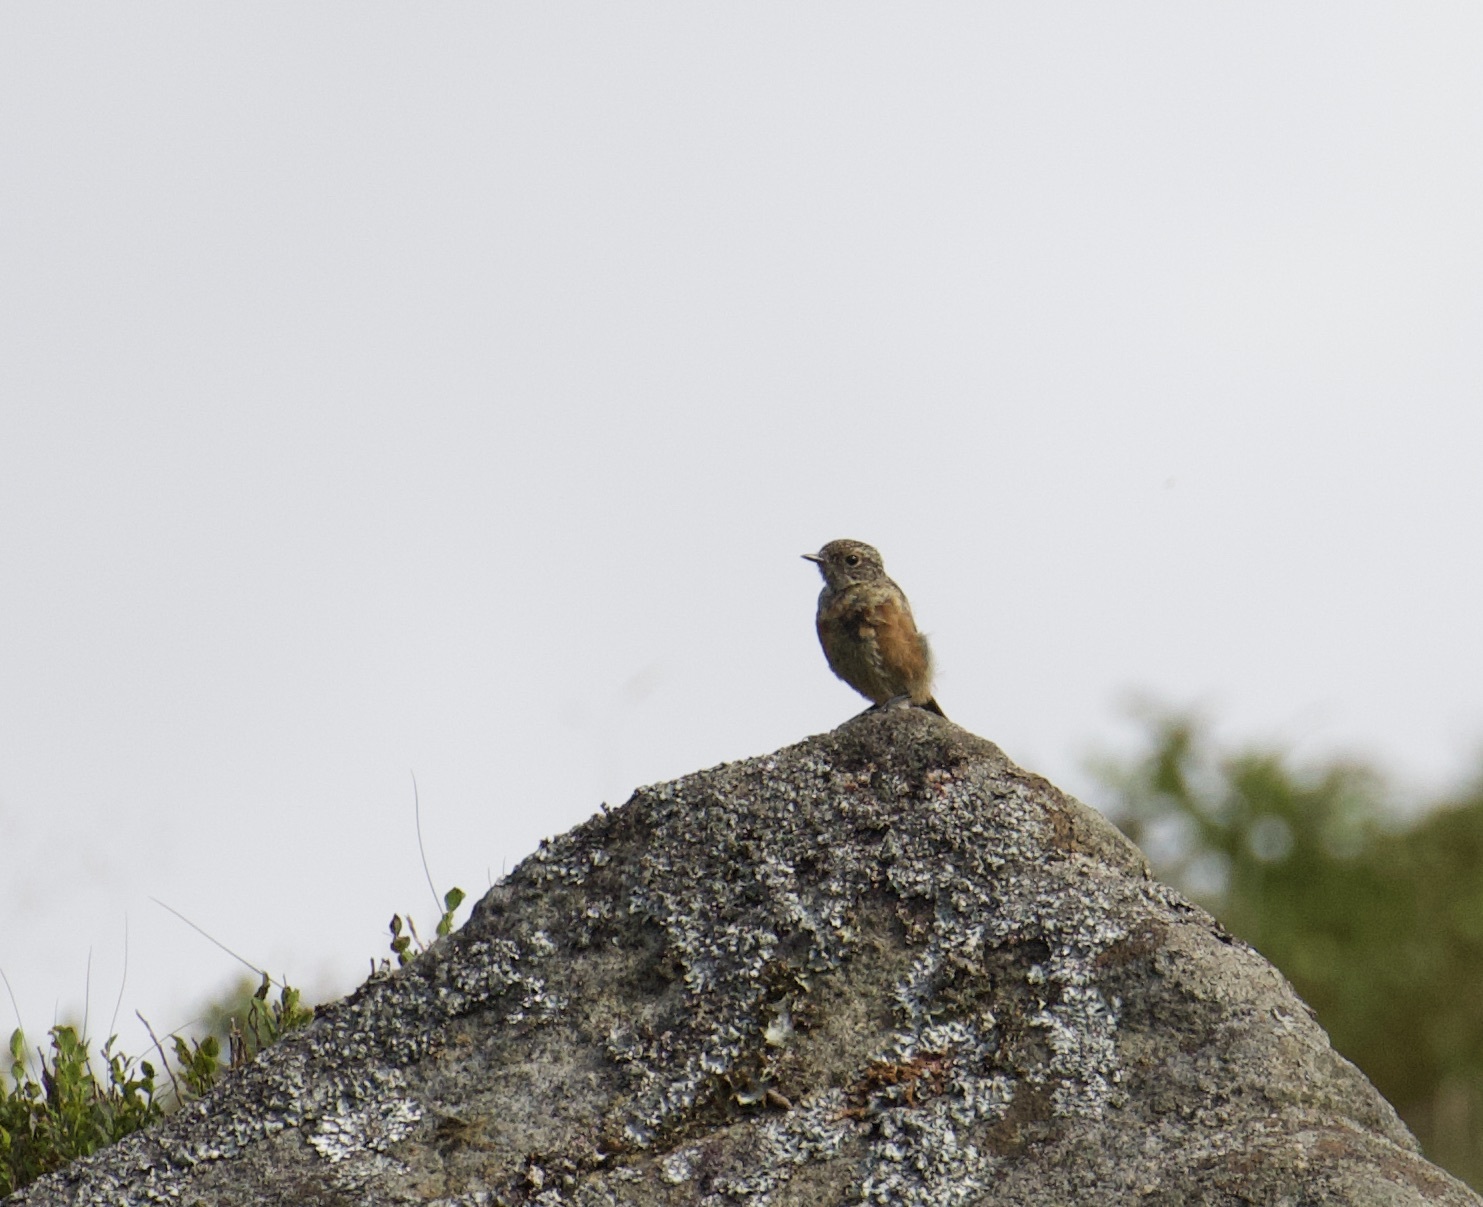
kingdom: Animalia
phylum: Chordata
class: Aves
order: Passeriformes
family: Muscicapidae
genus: Saxicola
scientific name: Saxicola rubicola
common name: European stonechat
